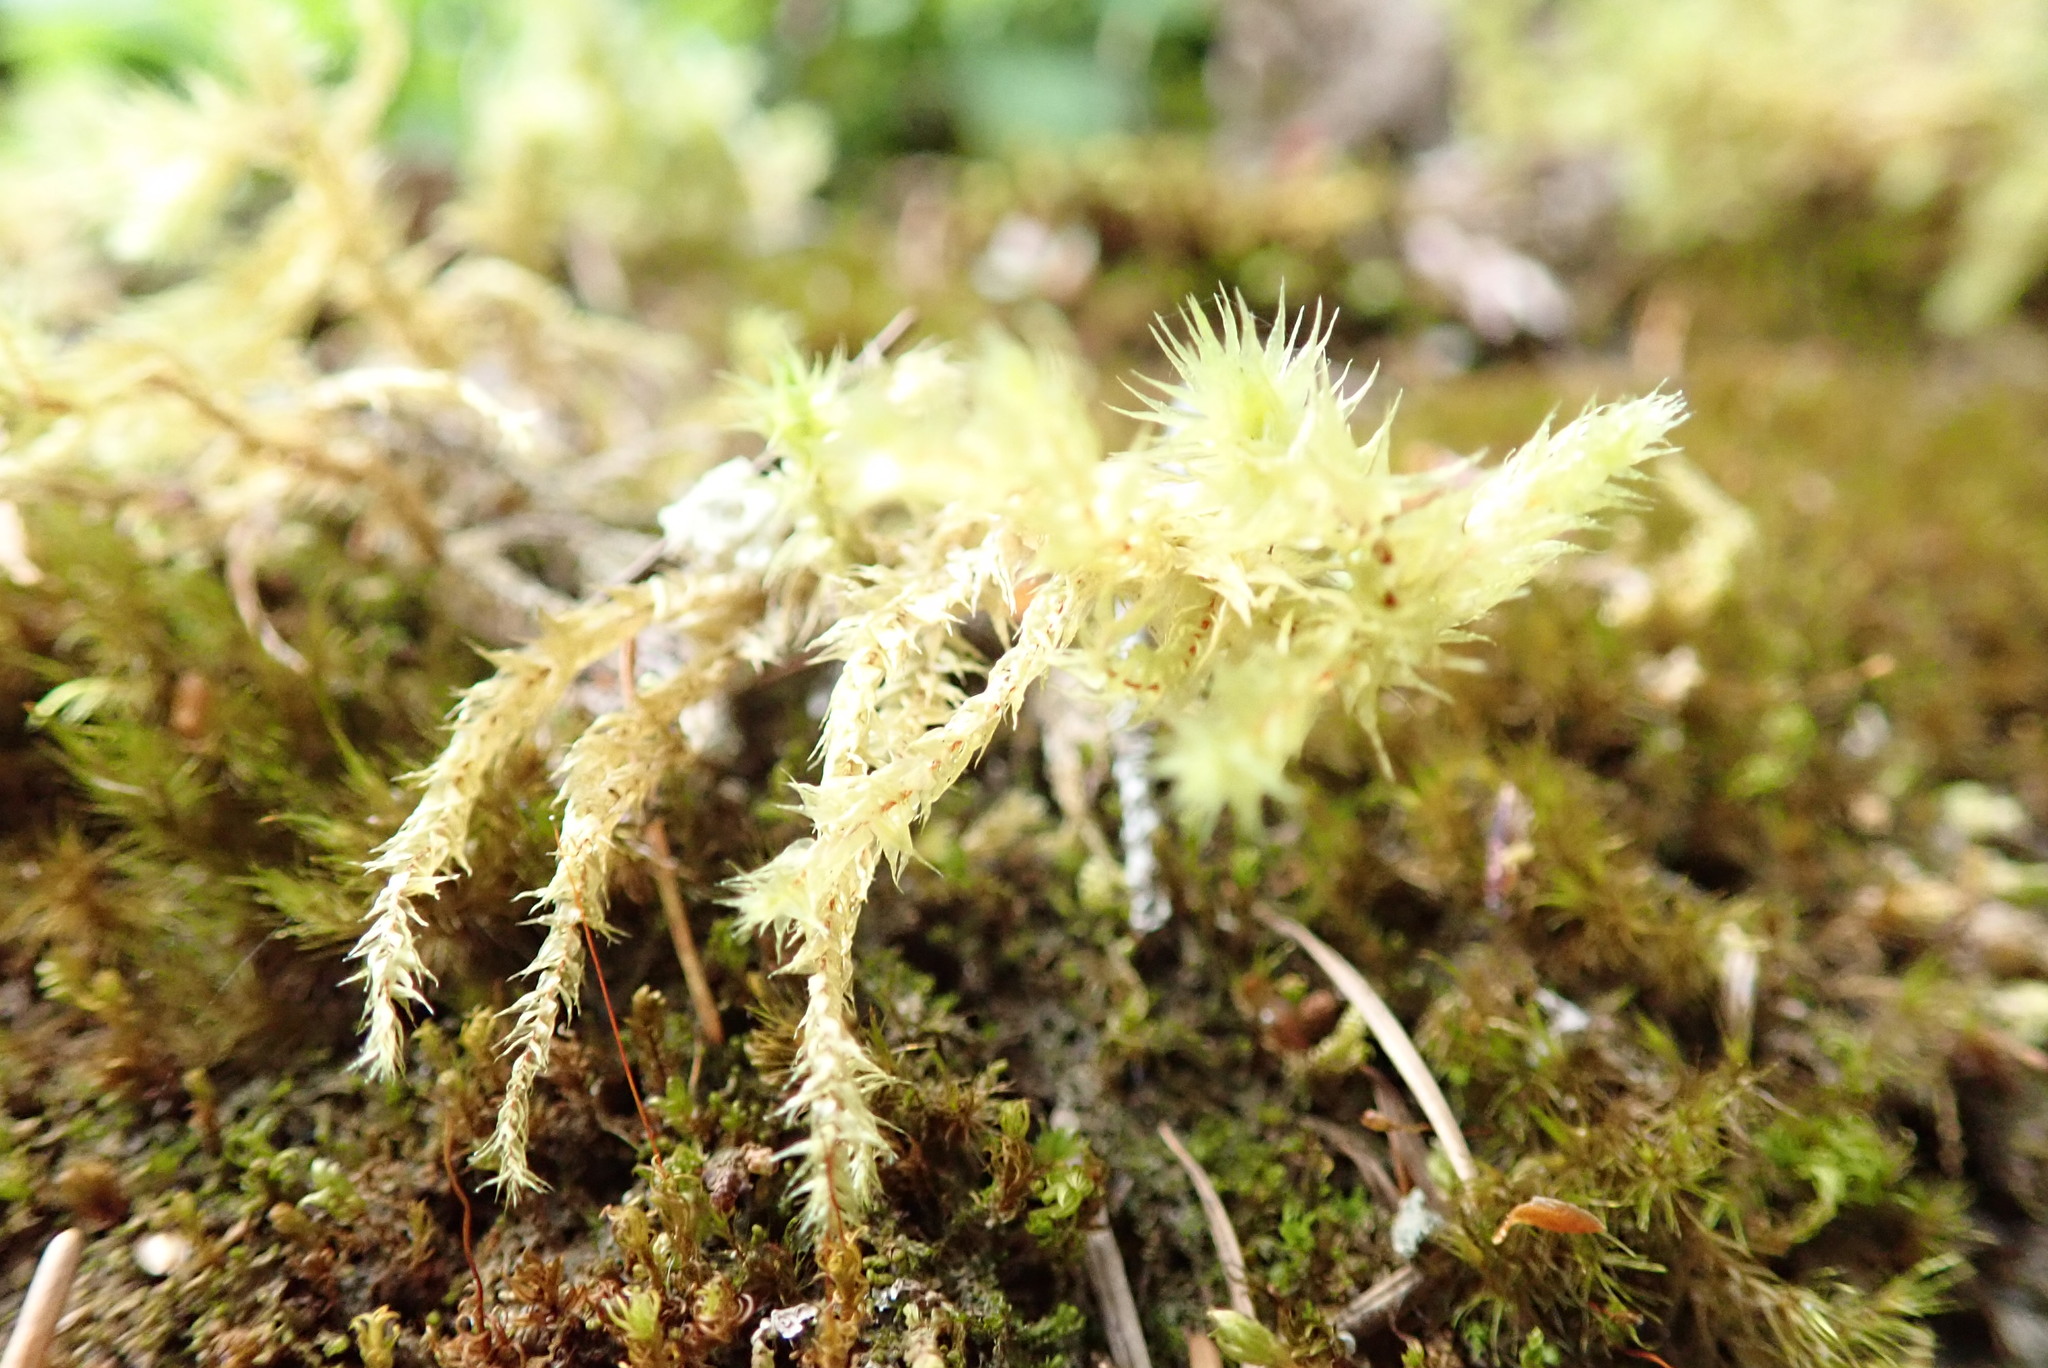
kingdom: Plantae
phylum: Bryophyta
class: Bryopsida
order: Hypnales
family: Hylocomiaceae
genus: Hylocomiadelphus
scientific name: Hylocomiadelphus triquetrus
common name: Rough goose neck moss
